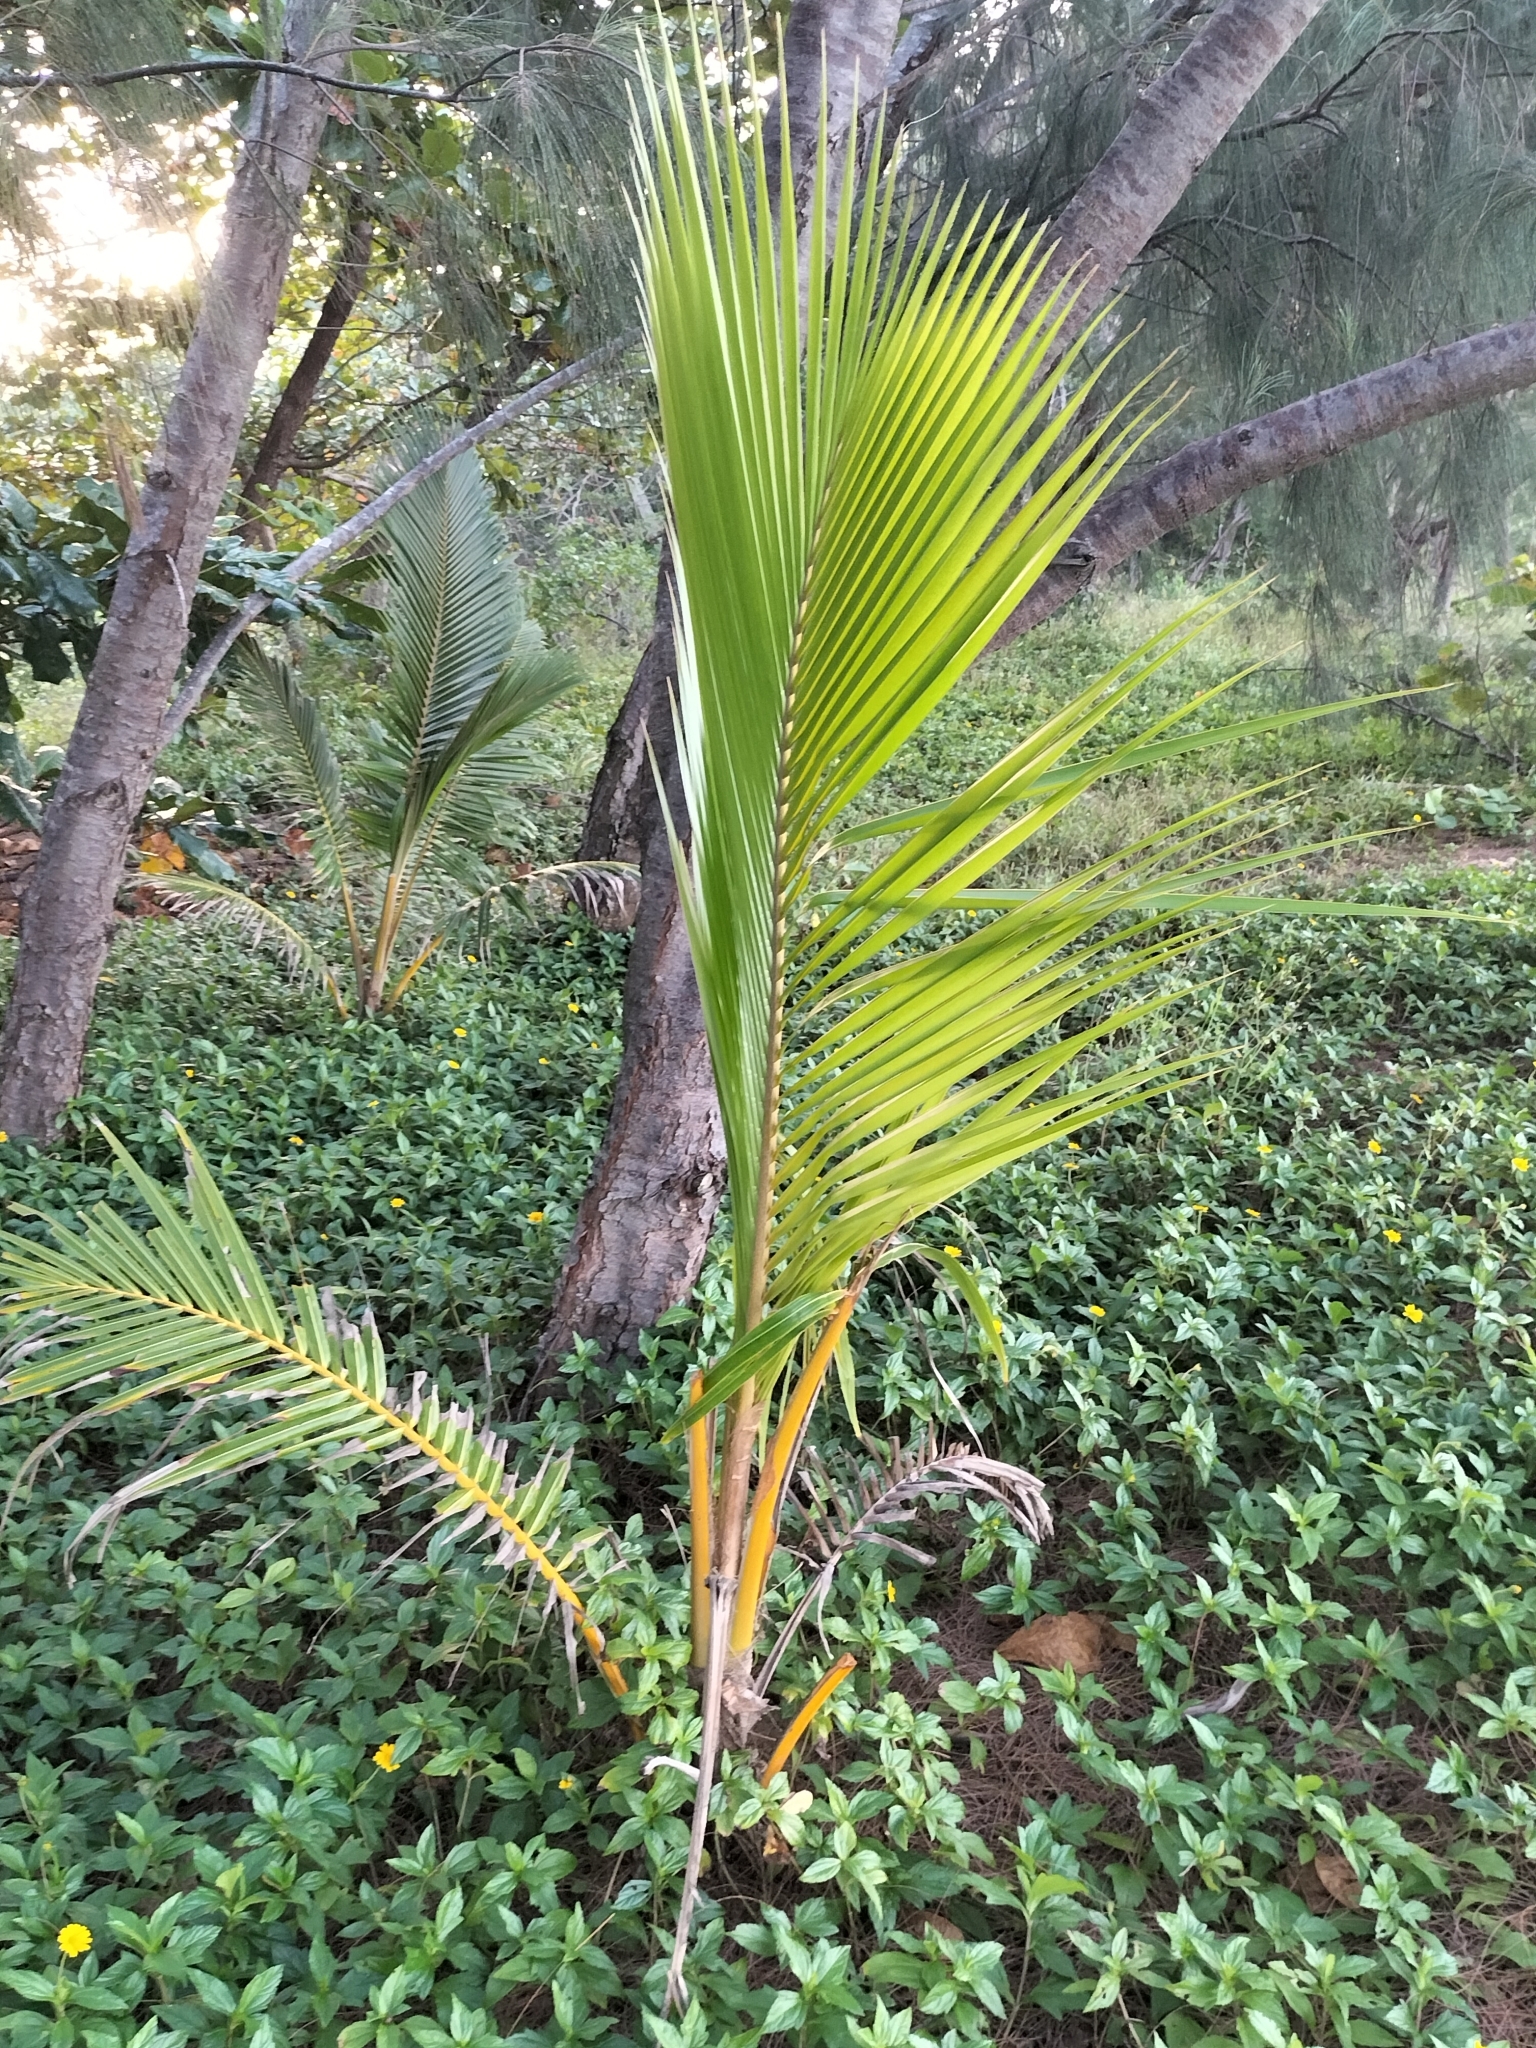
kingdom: Plantae
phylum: Tracheophyta
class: Liliopsida
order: Arecales
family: Arecaceae
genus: Cocos
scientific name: Cocos nucifera
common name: Coconut palm
